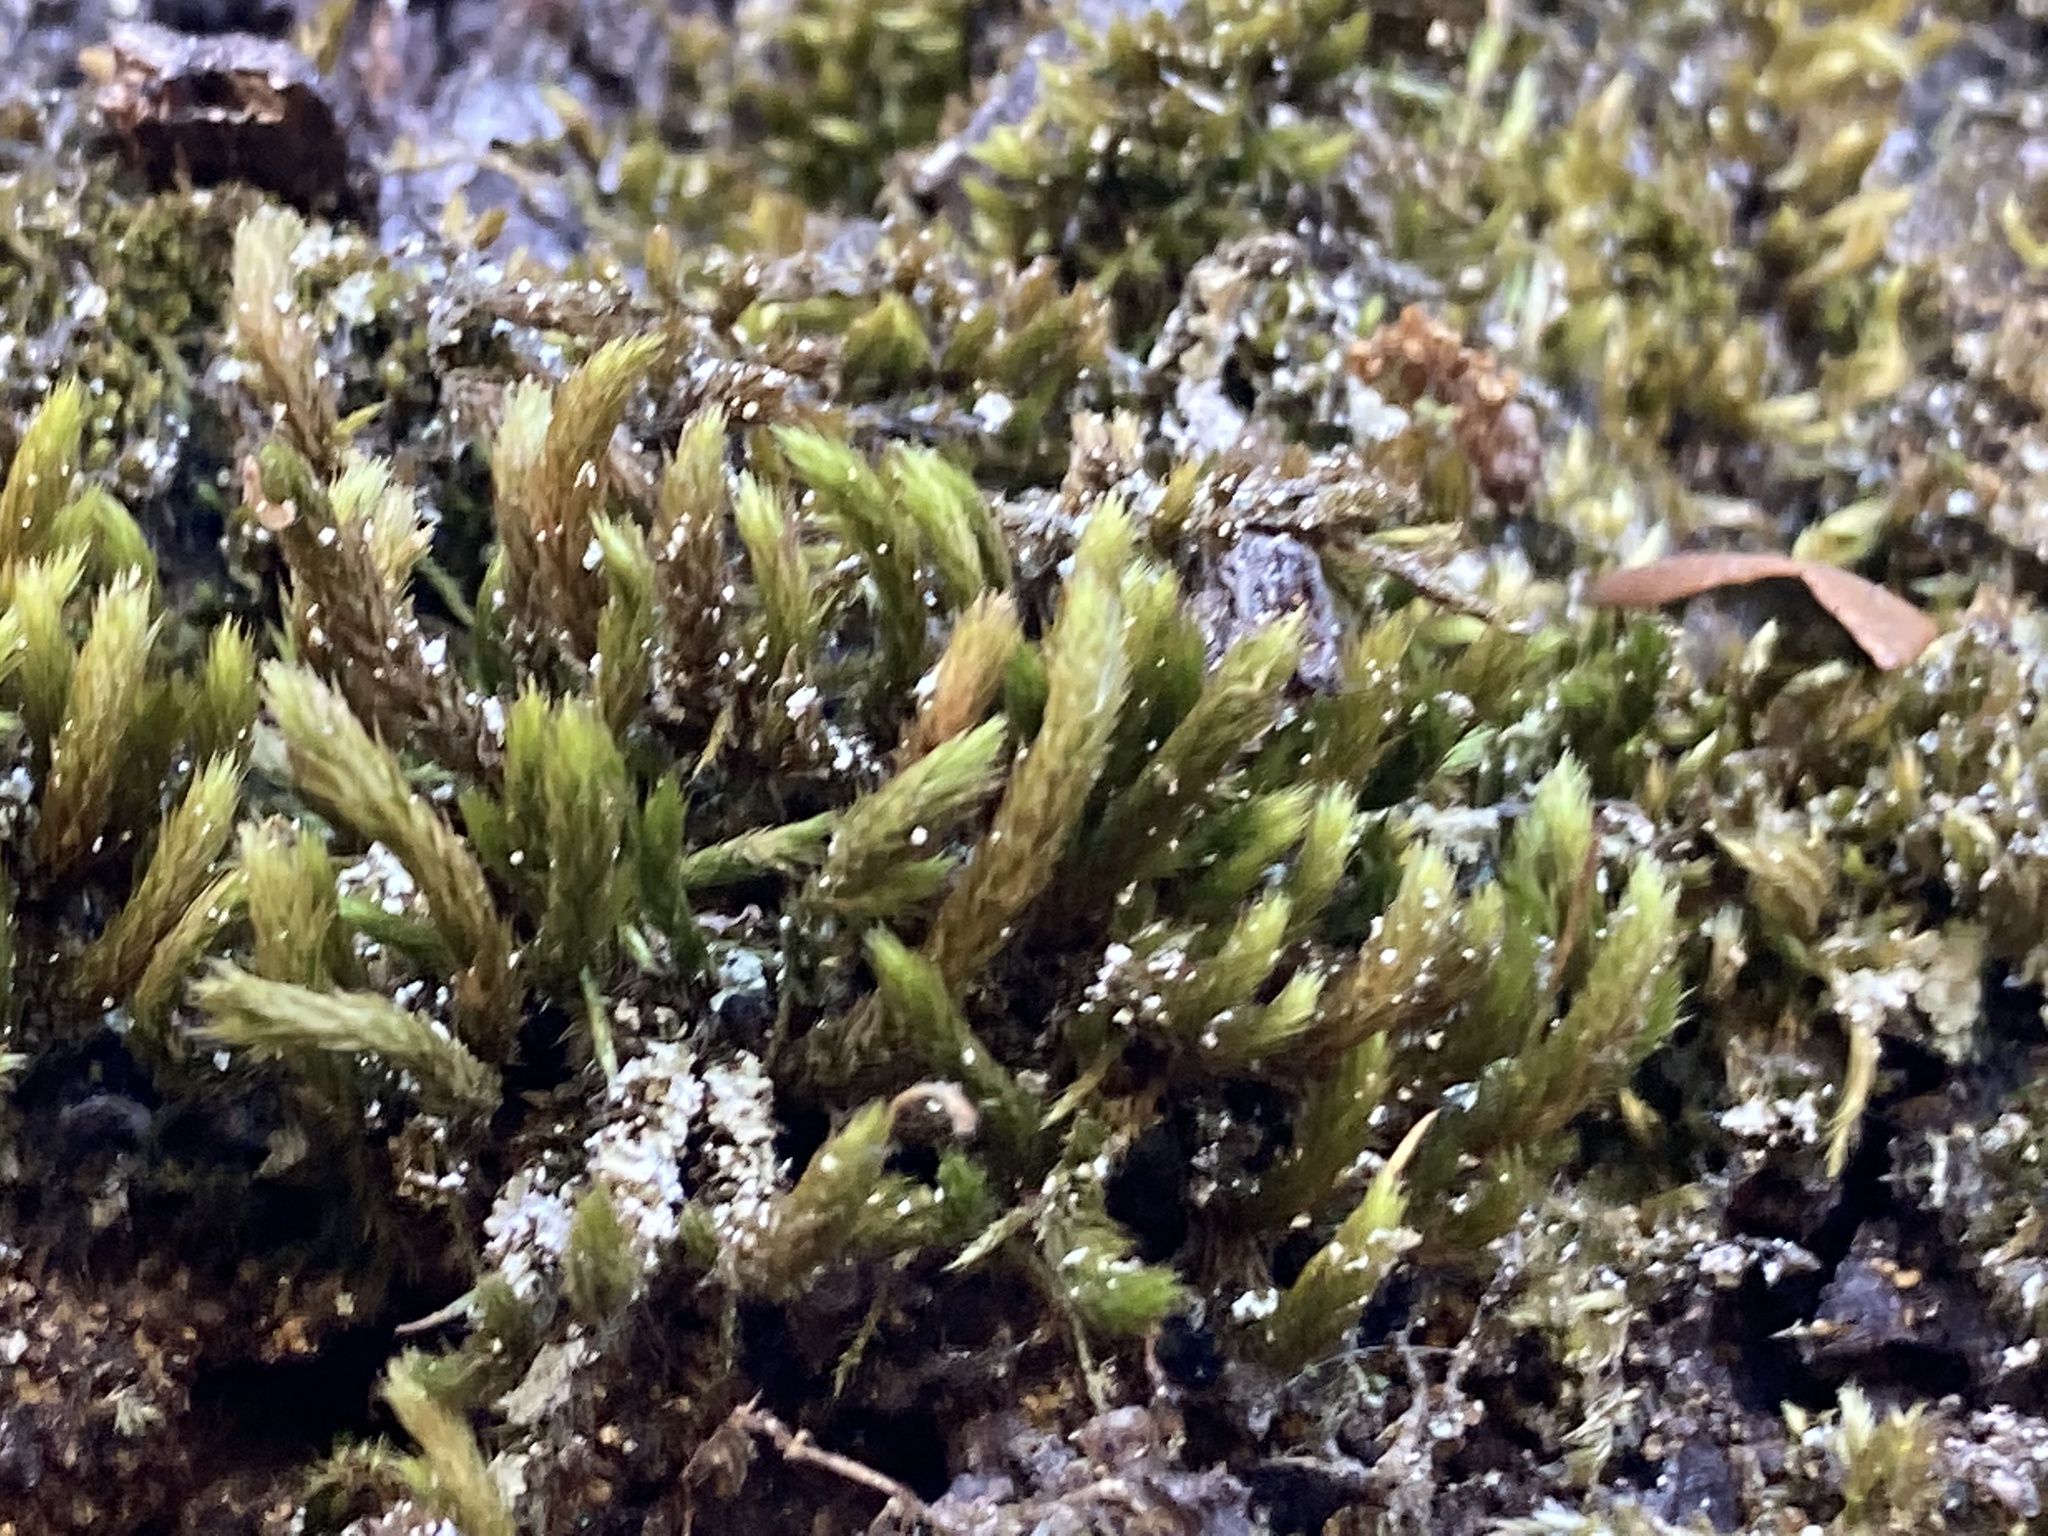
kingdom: Plantae
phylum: Bryophyta
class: Bryopsida
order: Hypnales
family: Leucodontaceae
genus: Leucodon
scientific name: Leucodon sciuroides
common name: Squirrel-tail moss
